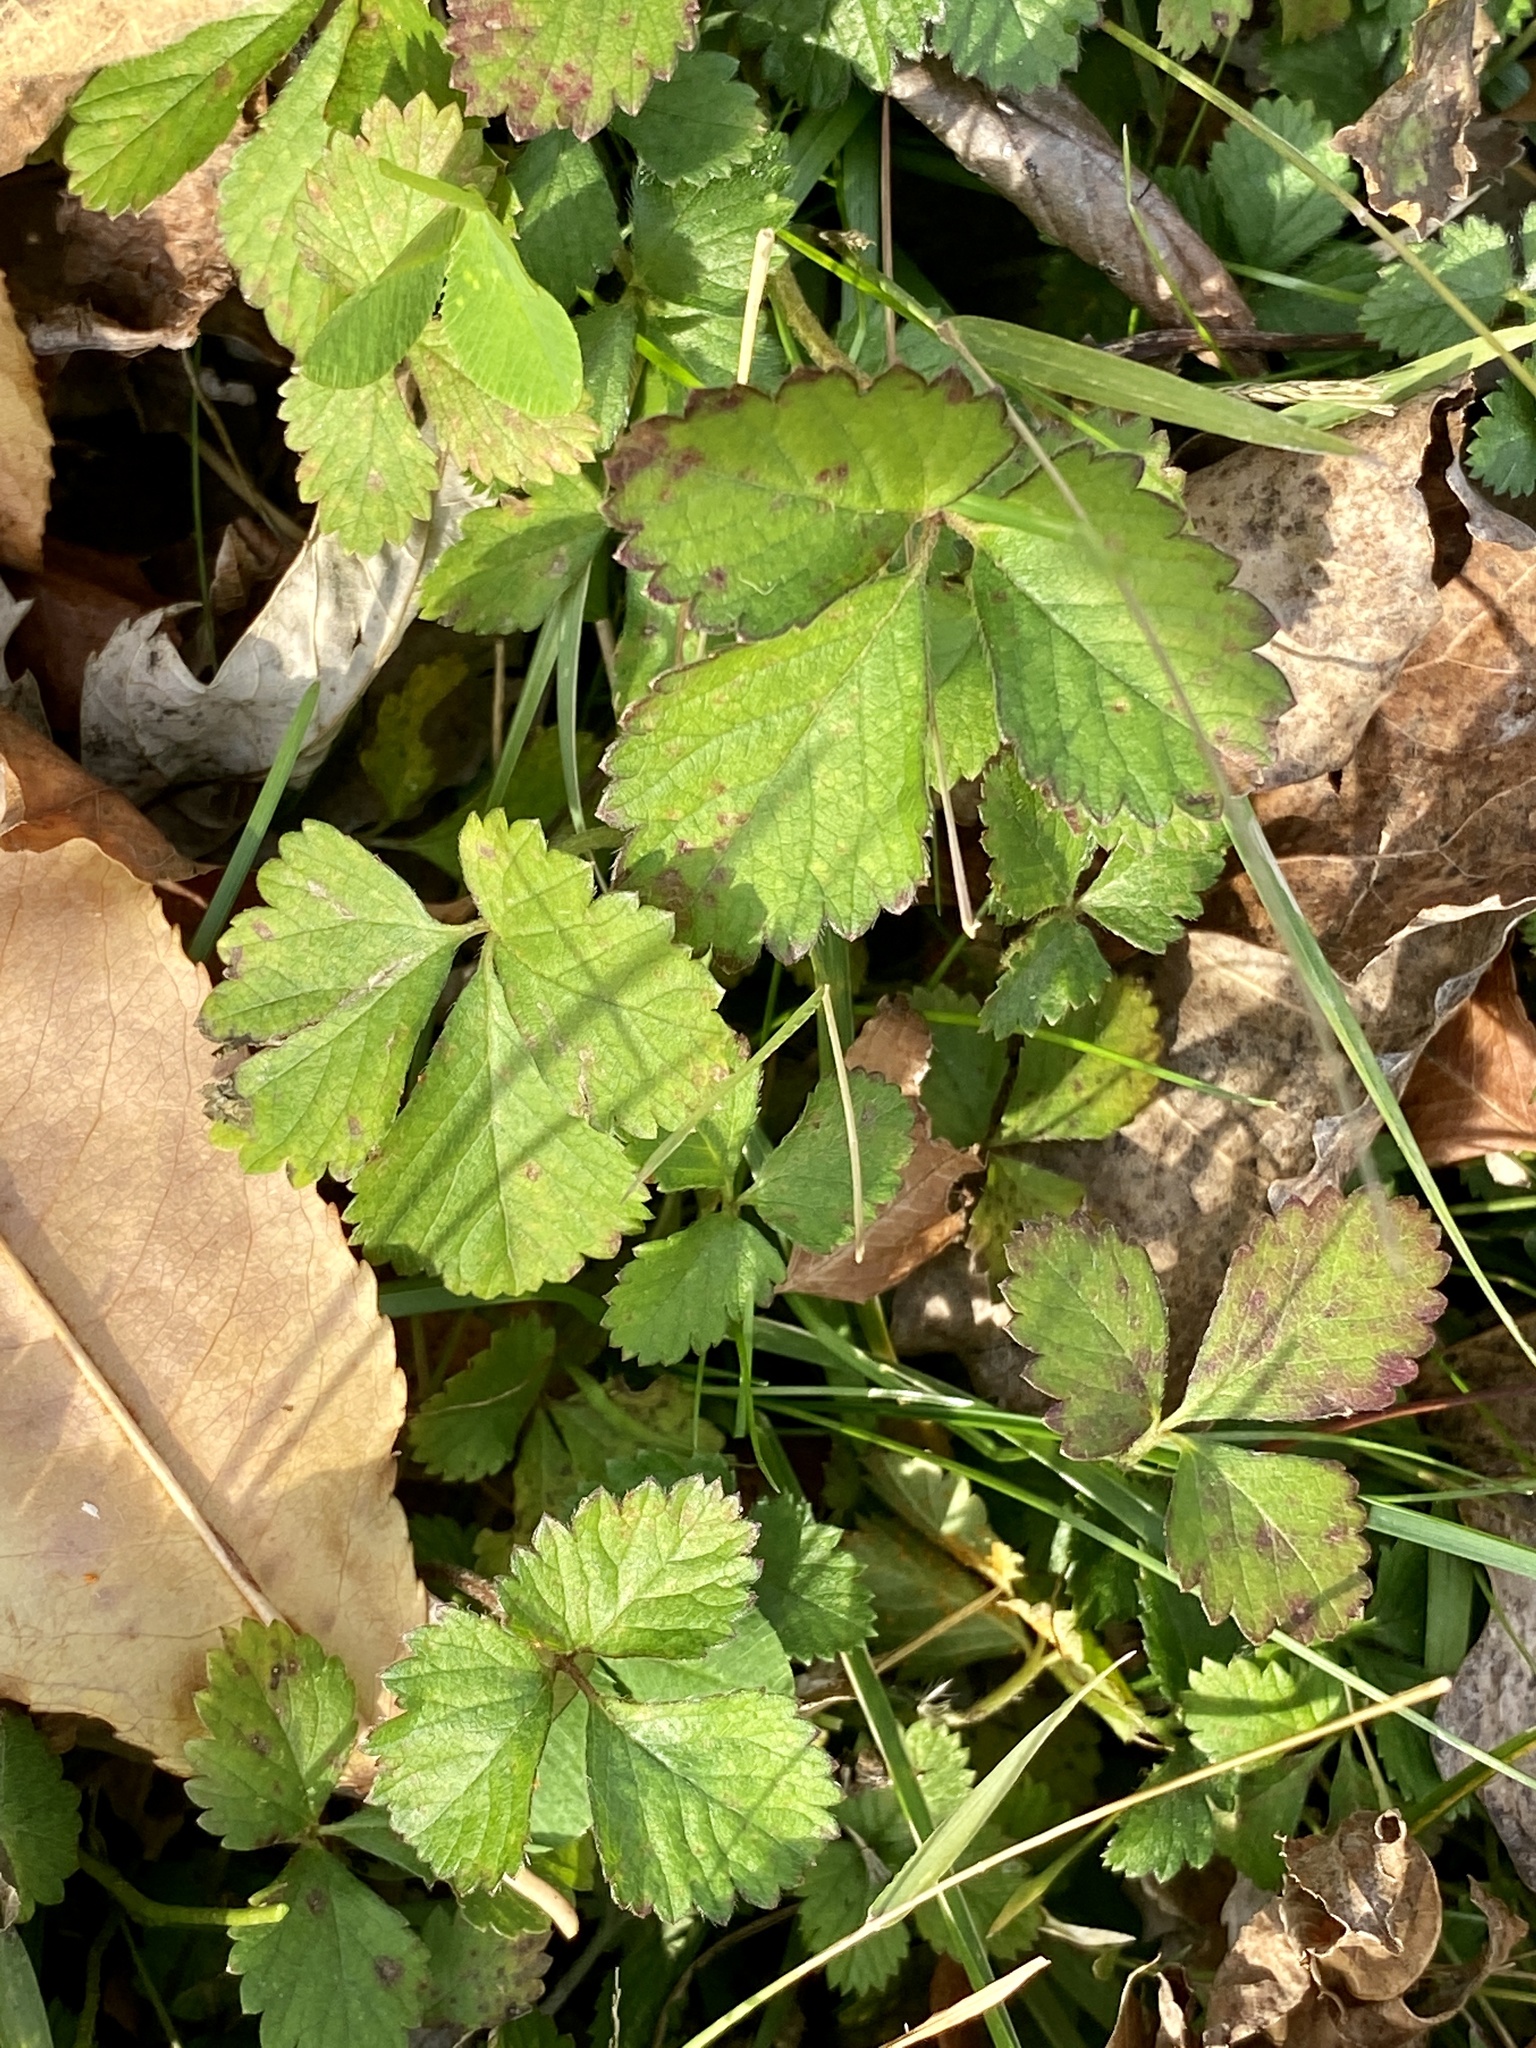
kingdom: Plantae
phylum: Tracheophyta
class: Magnoliopsida
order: Rosales
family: Rosaceae
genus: Potentilla
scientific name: Potentilla indica
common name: Yellow-flowered strawberry
